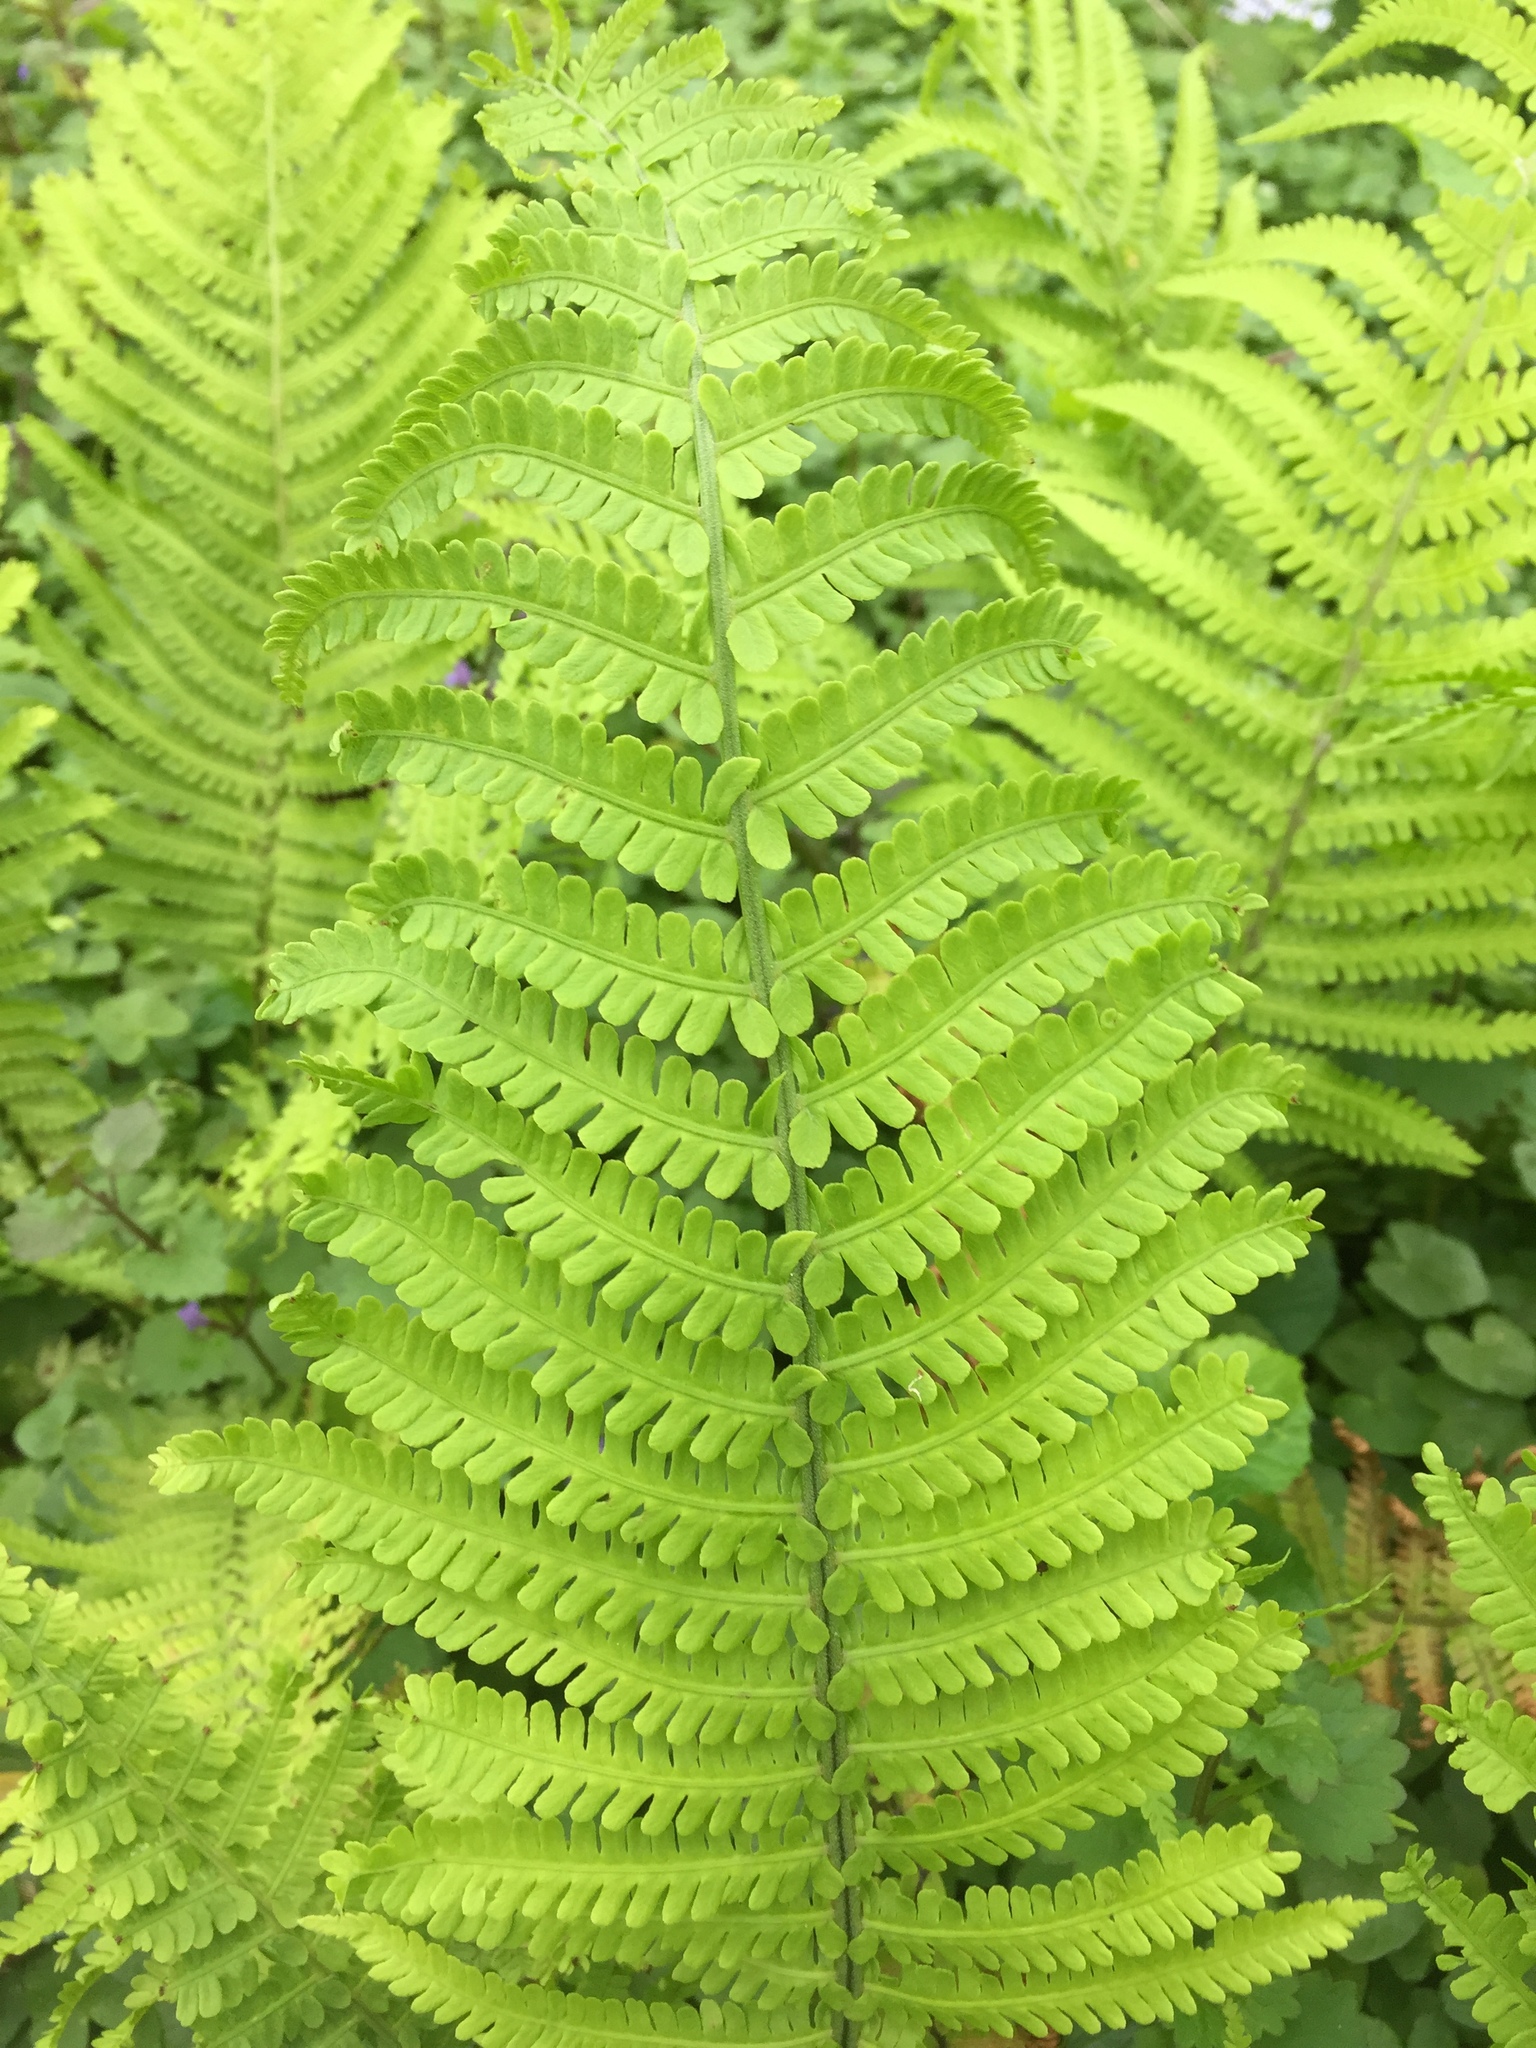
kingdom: Plantae
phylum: Tracheophyta
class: Polypodiopsida
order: Polypodiales
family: Onocleaceae
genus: Matteuccia
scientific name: Matteuccia struthiopteris
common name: Ostrich fern
